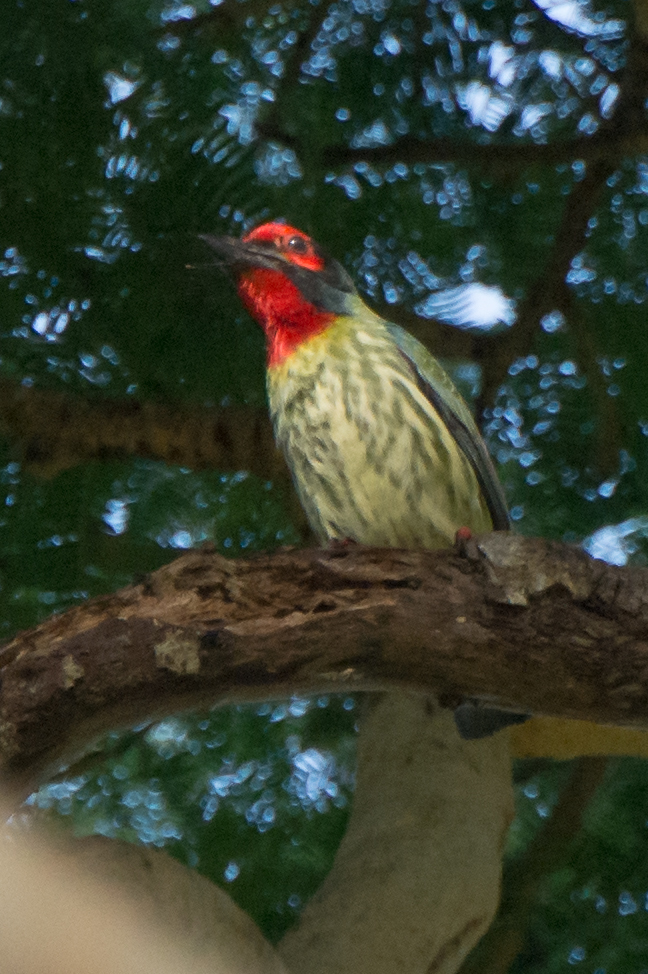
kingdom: Animalia
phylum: Chordata
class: Aves
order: Piciformes
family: Megalaimidae
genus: Psilopogon
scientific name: Psilopogon haemacephalus
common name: Coppersmith barbet
